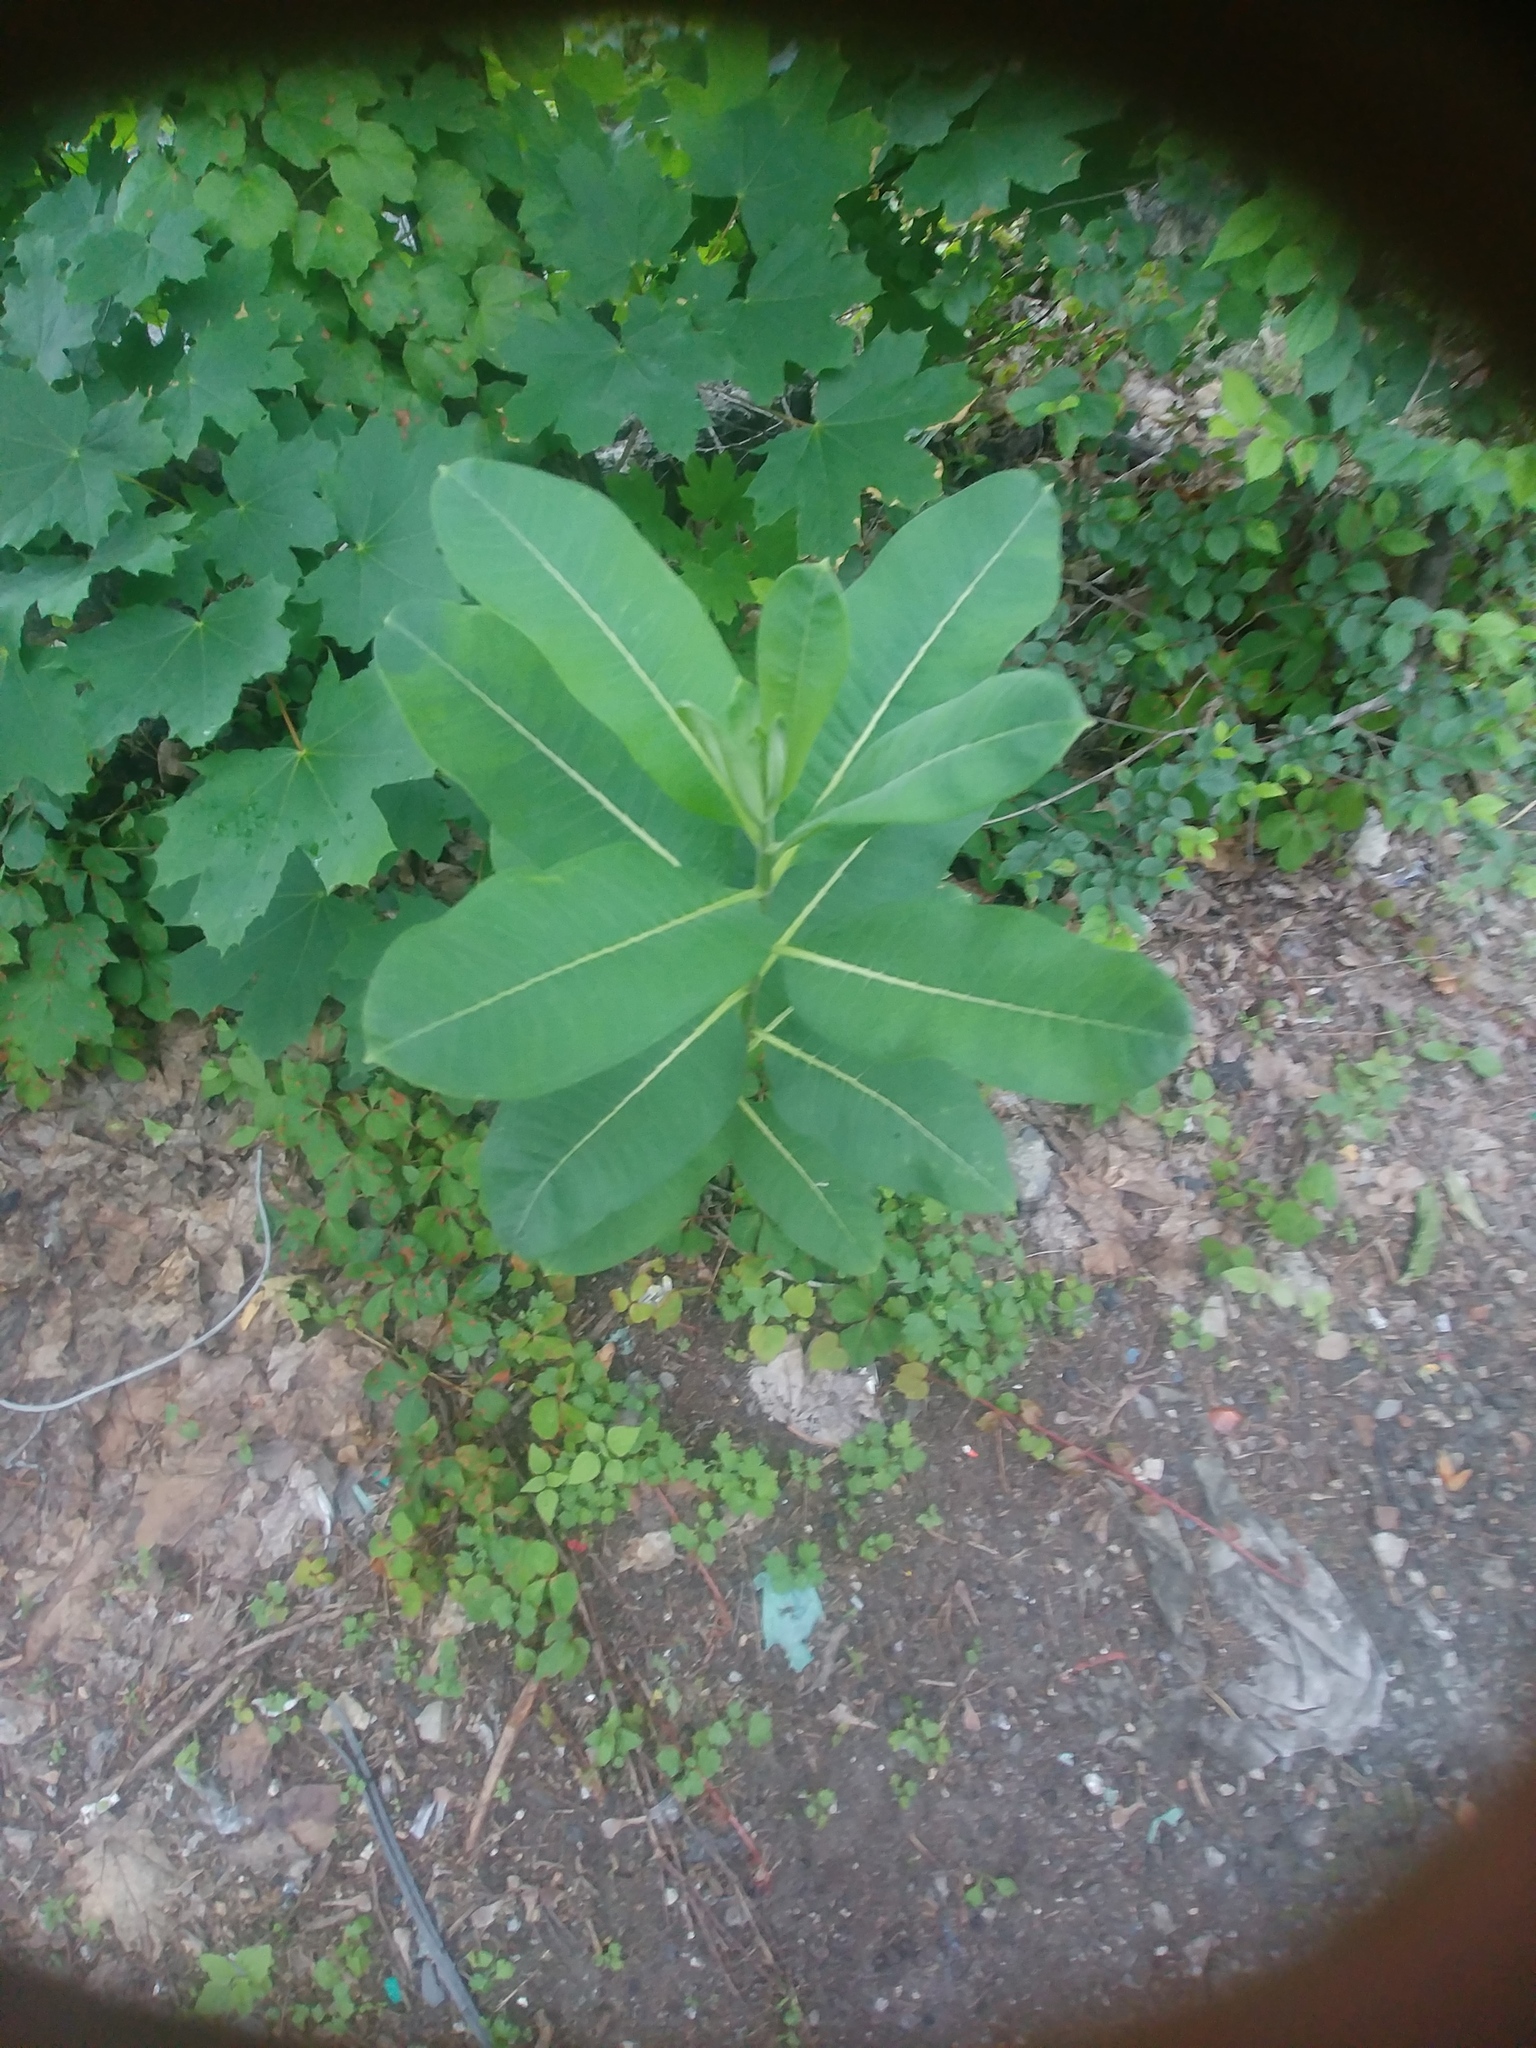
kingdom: Plantae
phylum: Tracheophyta
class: Magnoliopsida
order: Gentianales
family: Apocynaceae
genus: Asclepias
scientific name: Asclepias syriaca
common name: Common milkweed
